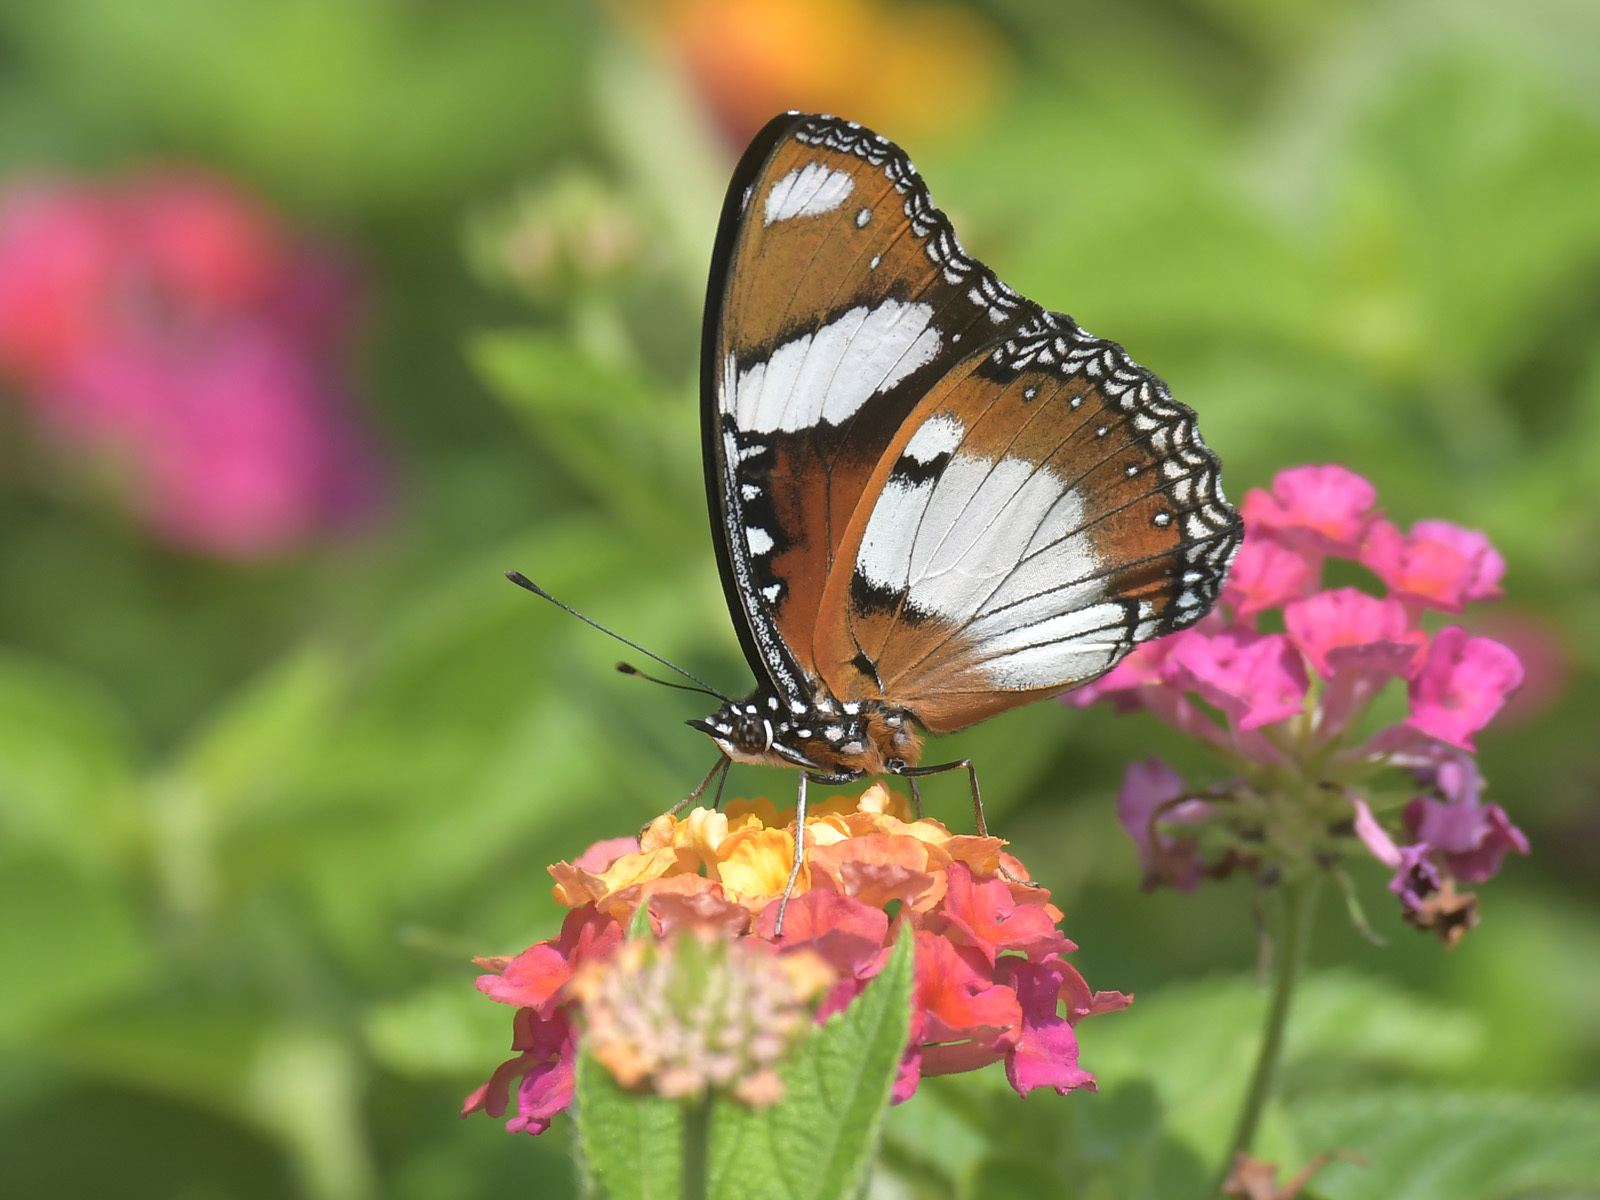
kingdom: Animalia
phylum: Arthropoda
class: Insecta
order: Lepidoptera
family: Nymphalidae
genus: Hypolimnas
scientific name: Hypolimnas misippus
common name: False plain tiger
